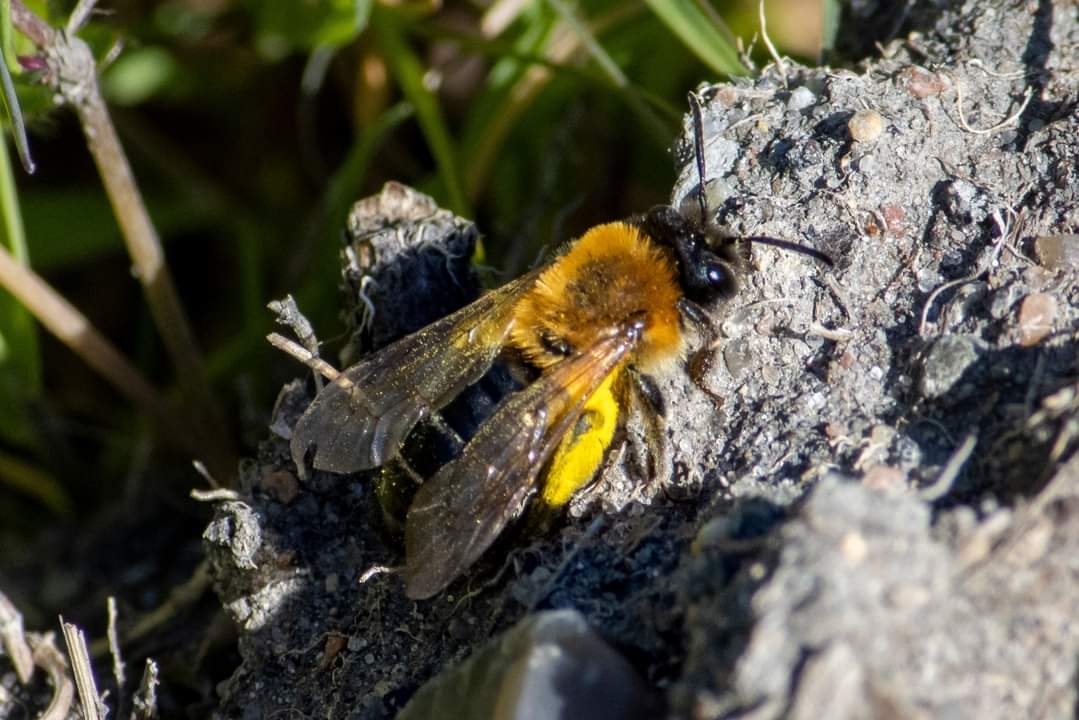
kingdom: Animalia
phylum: Arthropoda
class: Insecta
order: Hymenoptera
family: Andrenidae
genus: Andrena
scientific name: Andrena nitida
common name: Grey-patched mining bee
